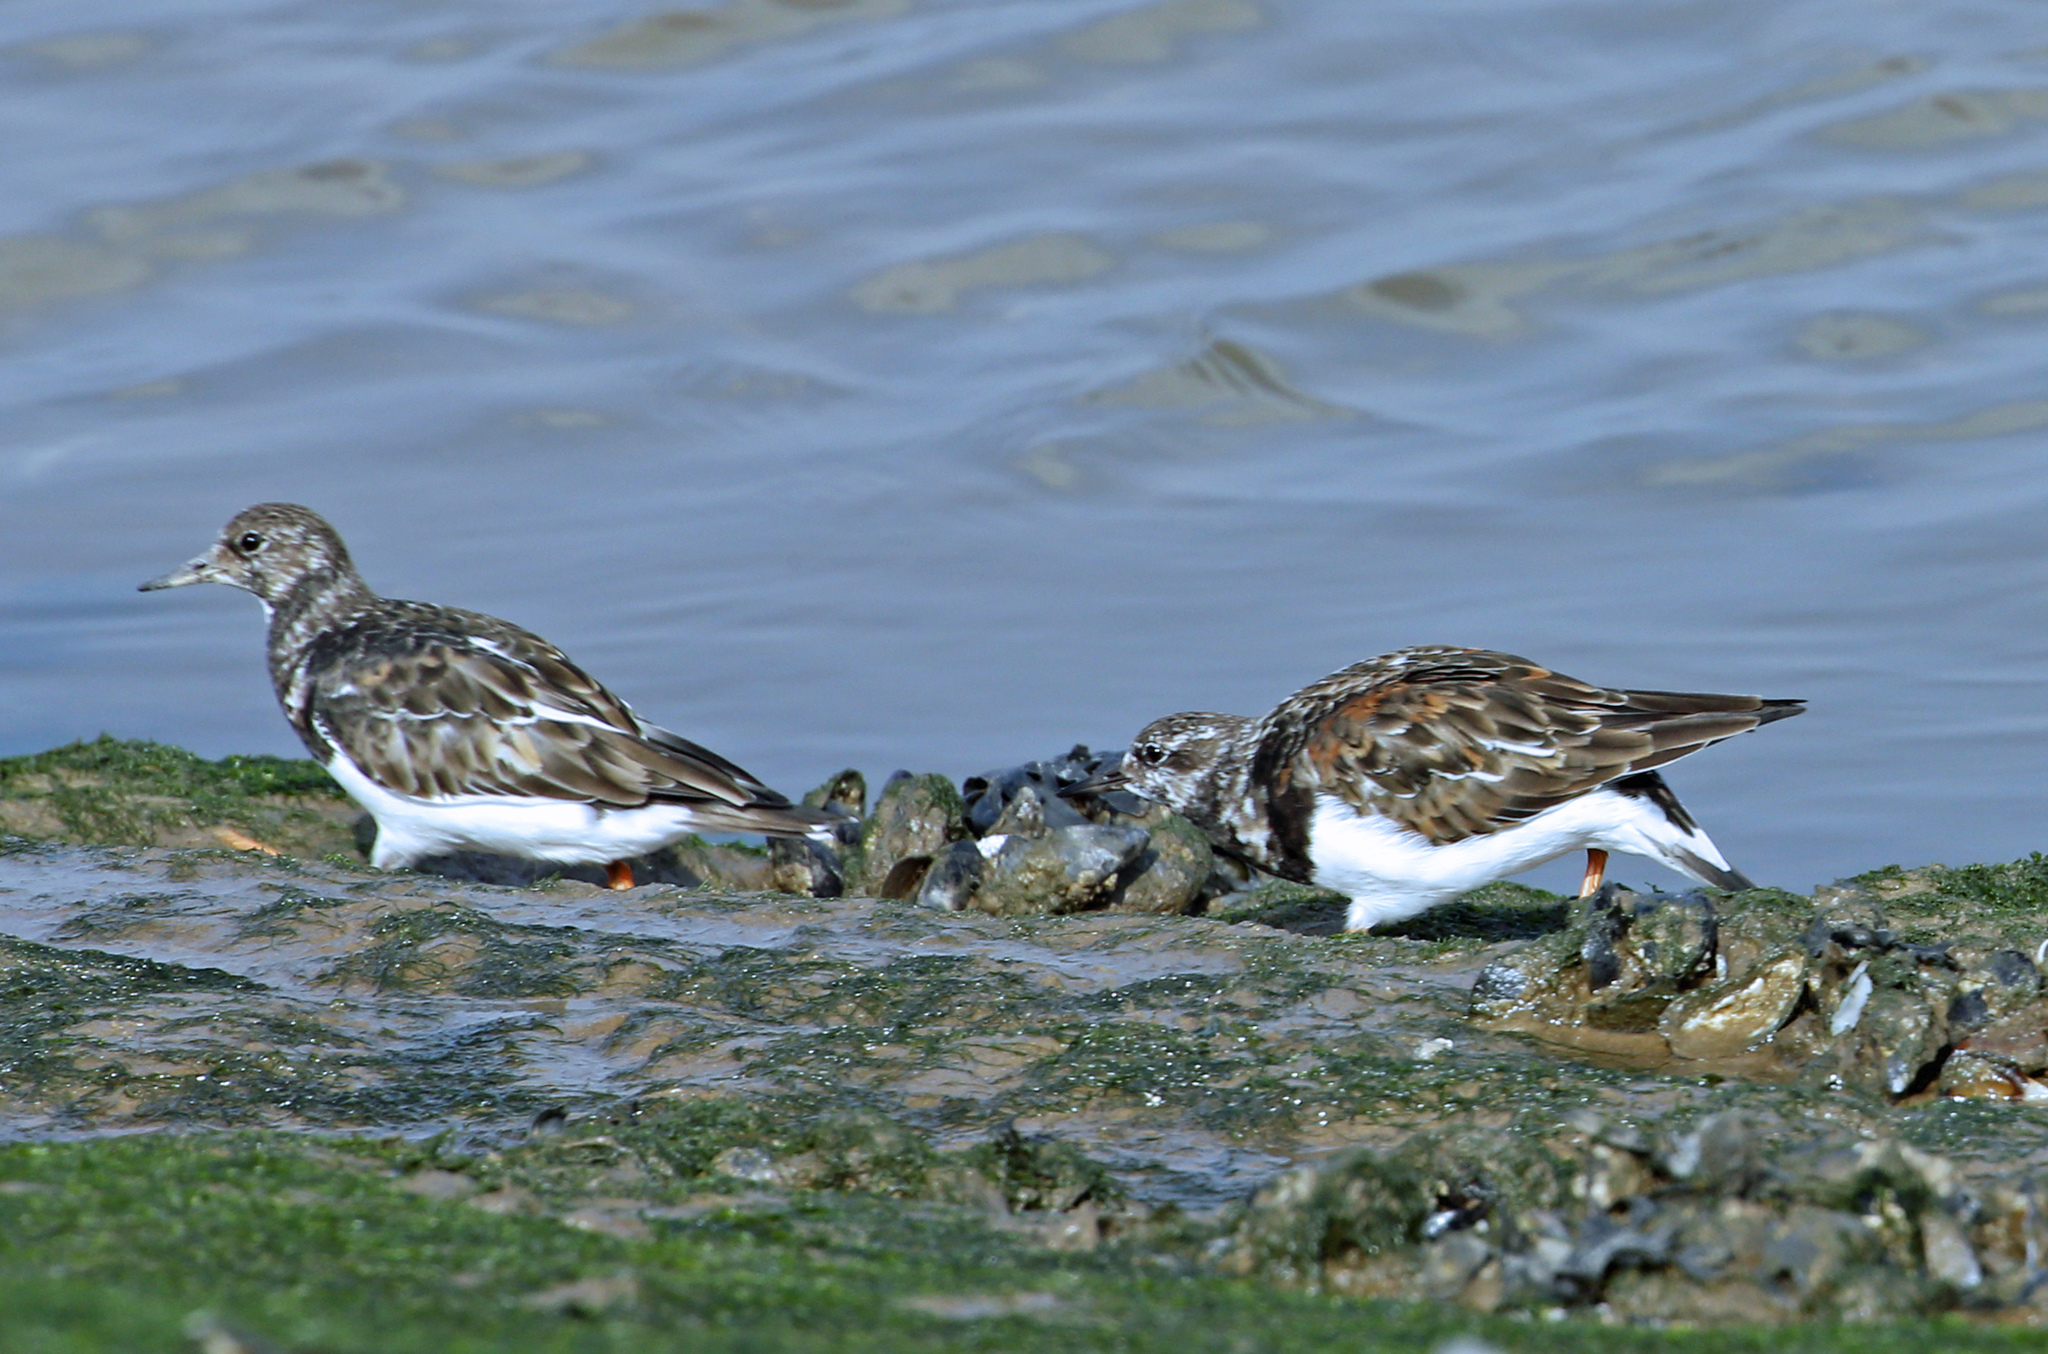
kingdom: Animalia
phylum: Chordata
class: Aves
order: Charadriiformes
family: Scolopacidae
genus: Arenaria
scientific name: Arenaria interpres
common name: Ruddy turnstone
